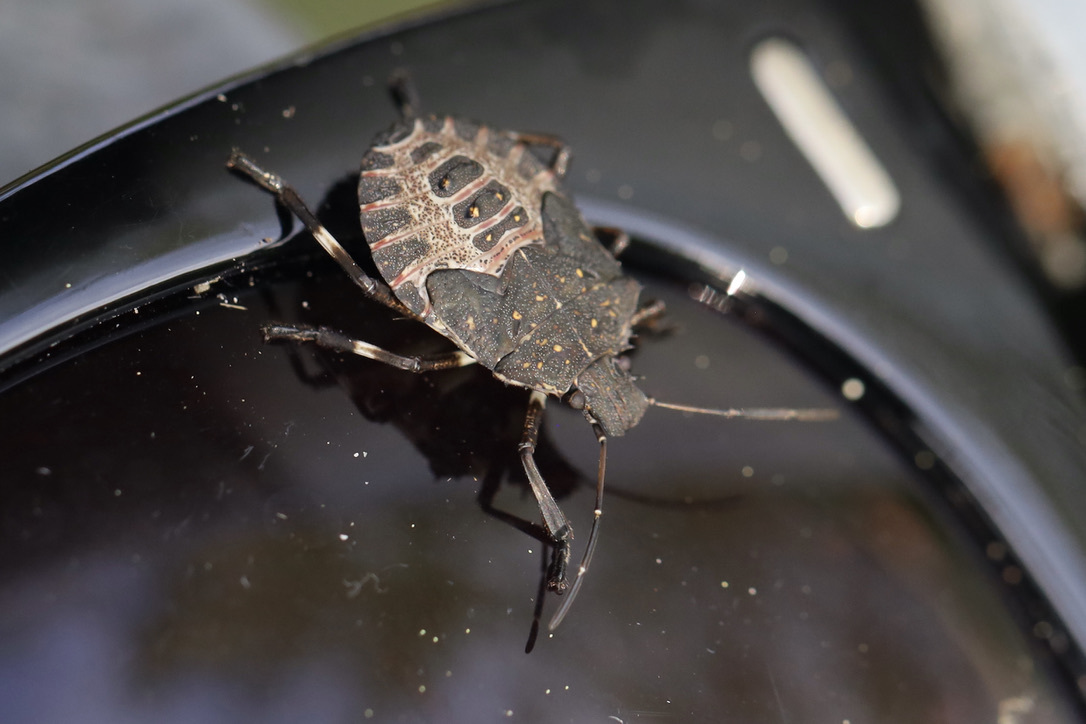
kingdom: Animalia
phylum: Arthropoda
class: Insecta
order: Hemiptera
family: Pentatomidae
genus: Halyomorpha
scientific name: Halyomorpha halys
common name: Brown marmorated stink bug
